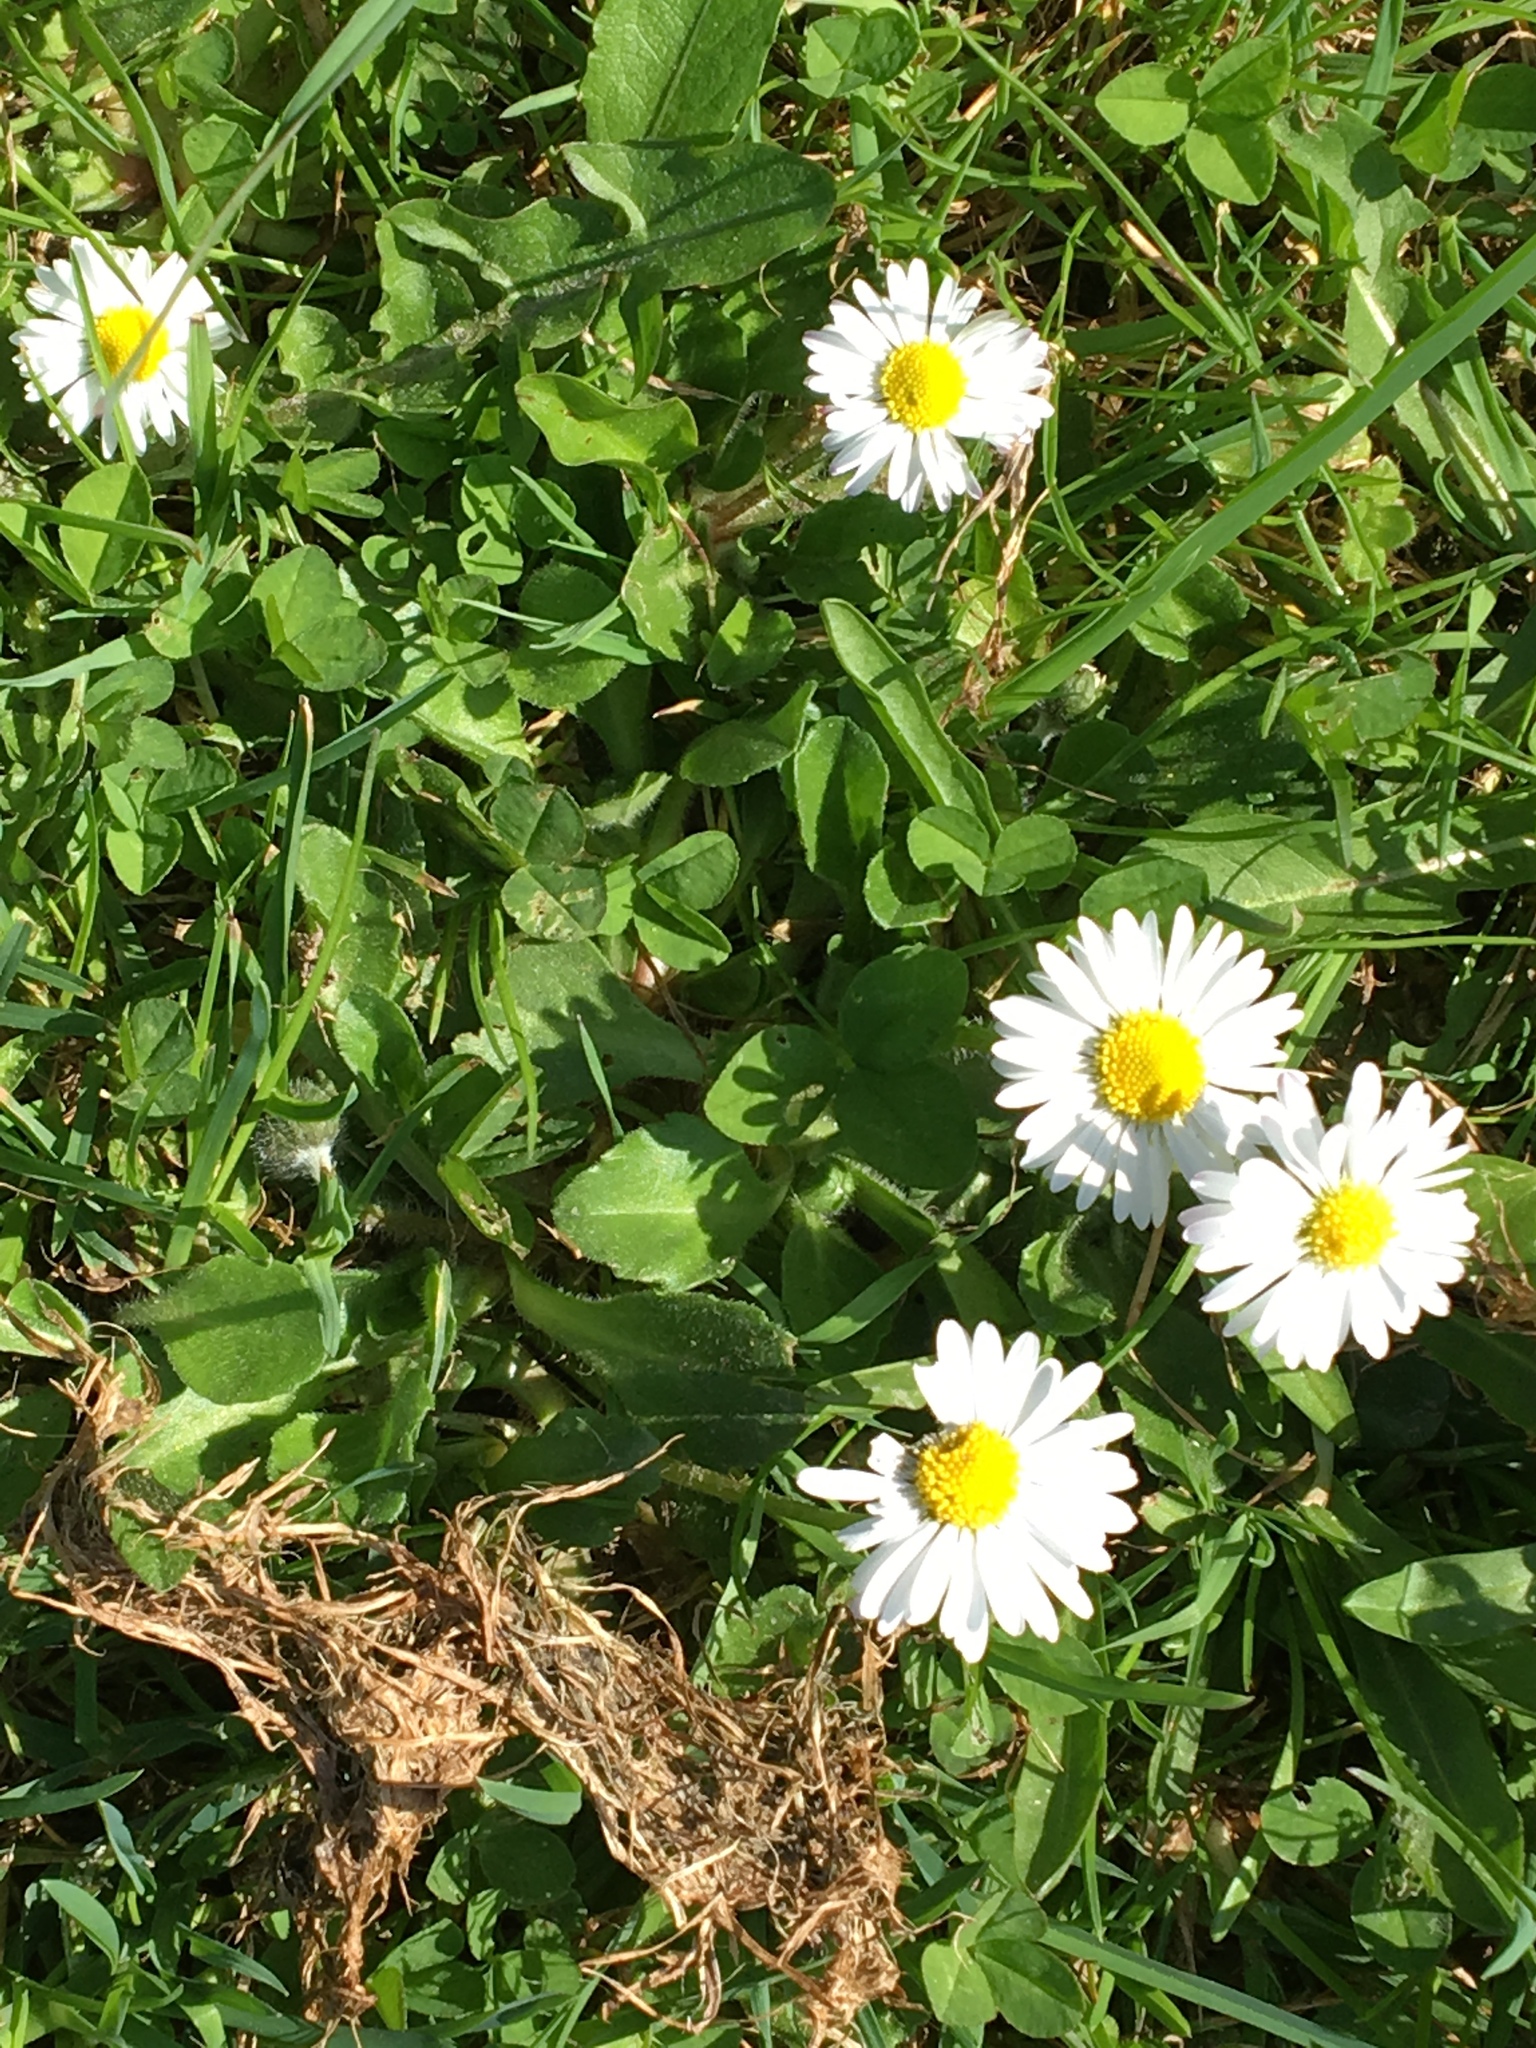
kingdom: Plantae
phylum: Tracheophyta
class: Magnoliopsida
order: Asterales
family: Asteraceae
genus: Bellis
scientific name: Bellis perennis
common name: Lawndaisy
